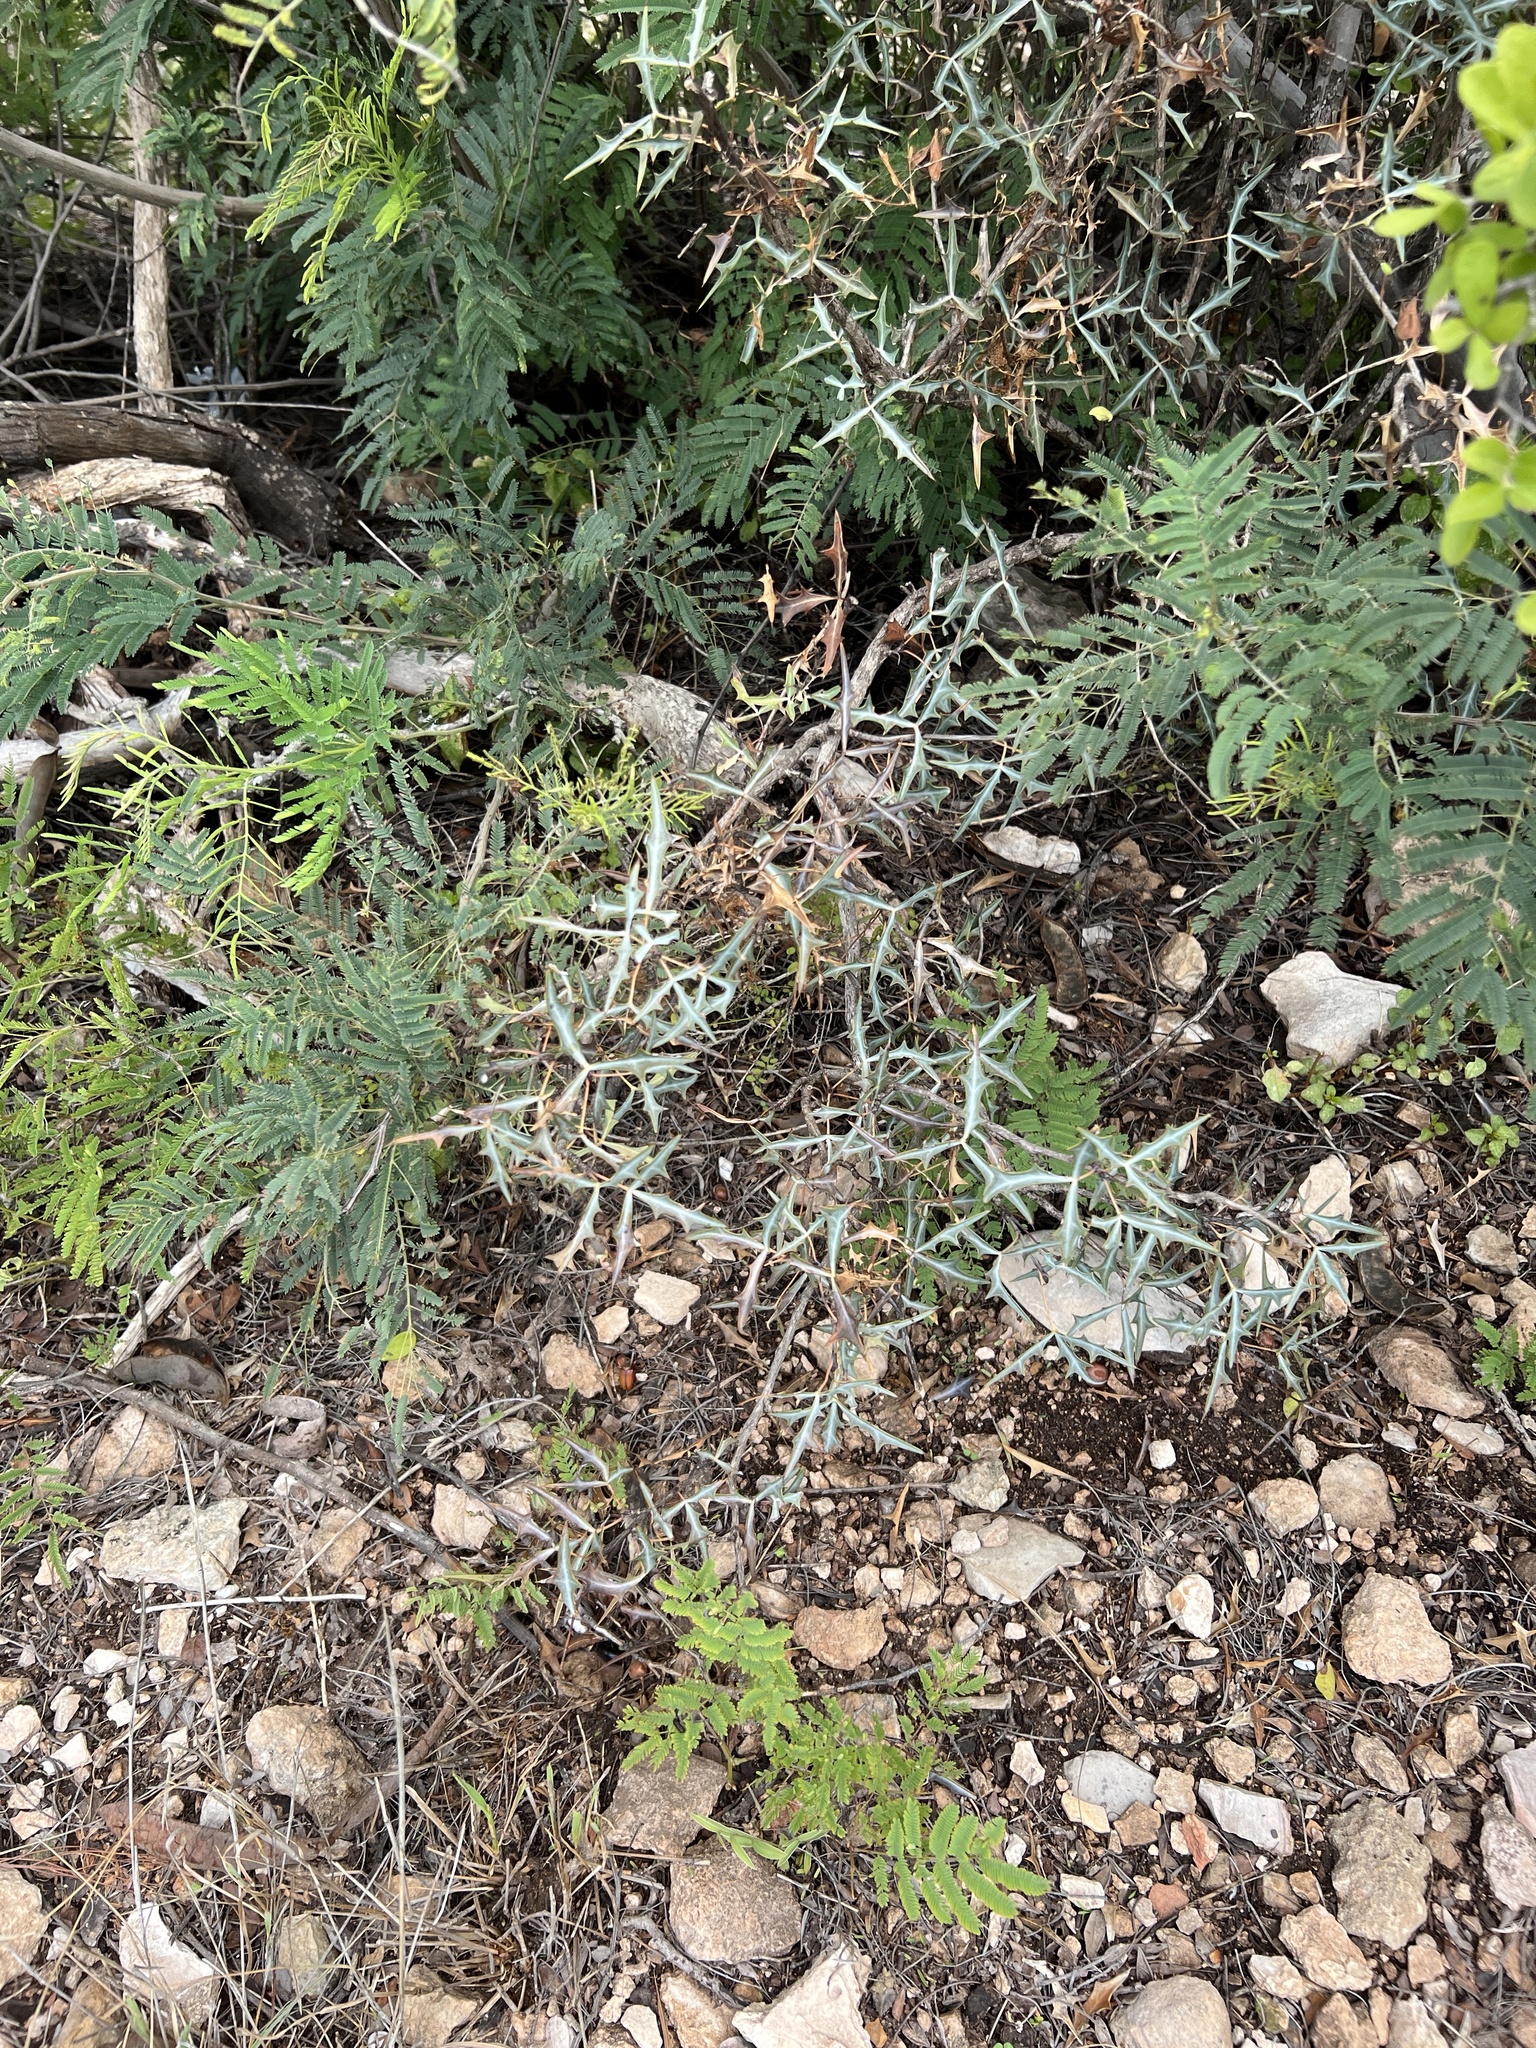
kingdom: Plantae
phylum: Tracheophyta
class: Magnoliopsida
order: Ranunculales
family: Berberidaceae
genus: Alloberberis
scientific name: Alloberberis trifoliolata
